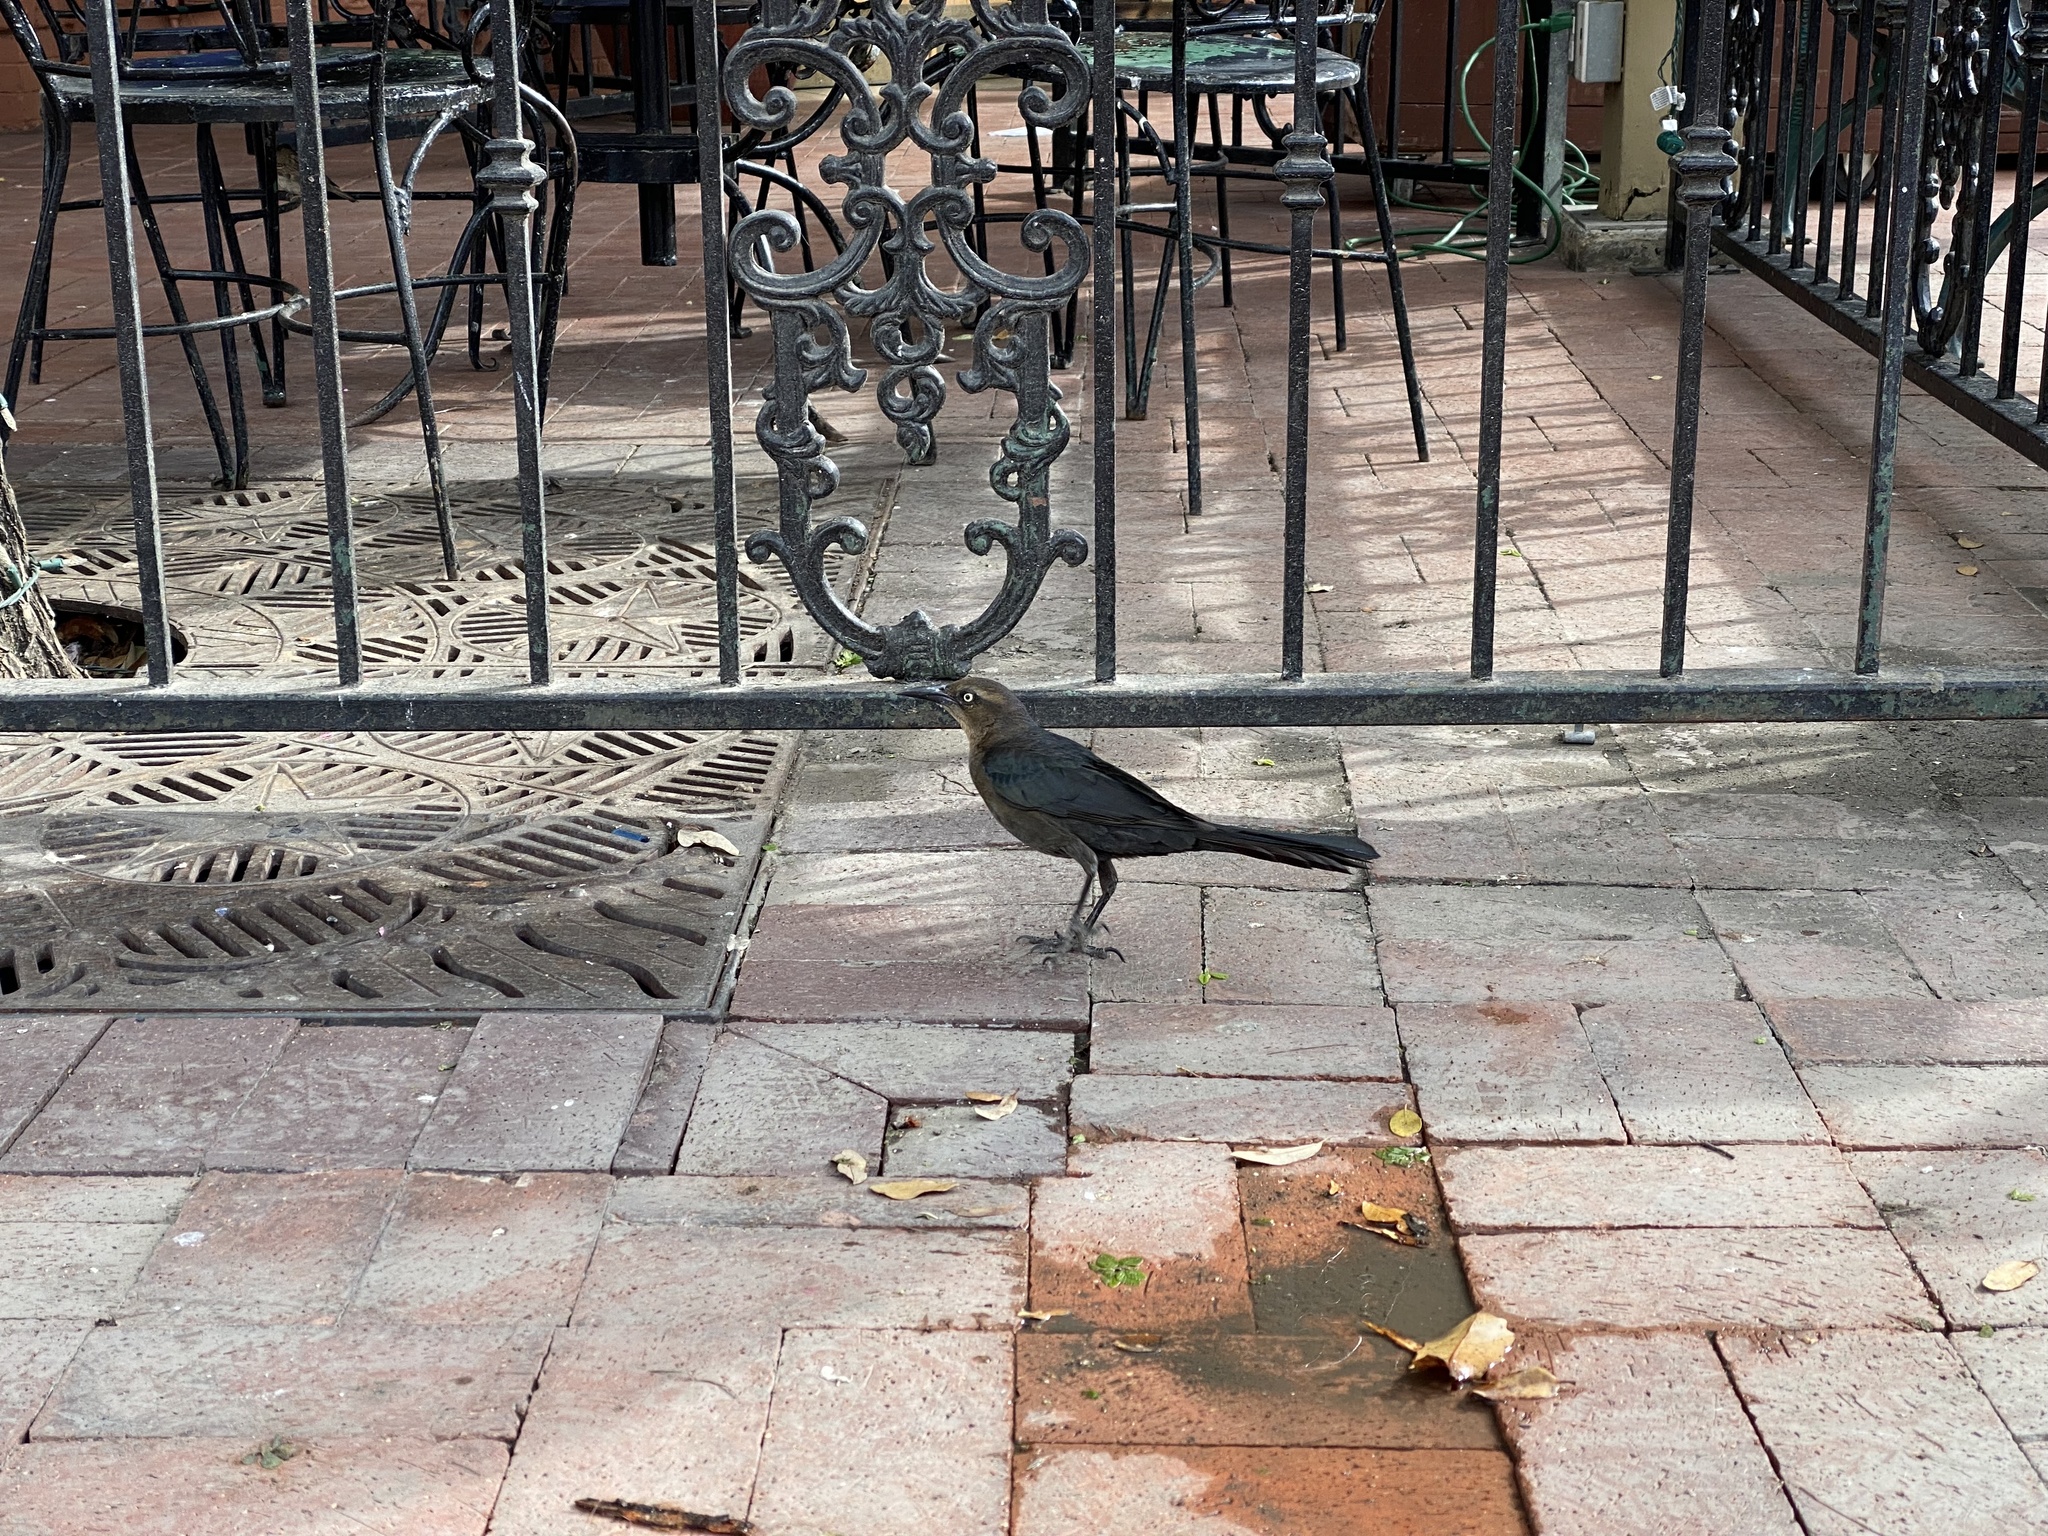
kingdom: Animalia
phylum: Chordata
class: Aves
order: Passeriformes
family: Icteridae
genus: Quiscalus
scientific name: Quiscalus mexicanus
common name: Great-tailed grackle
